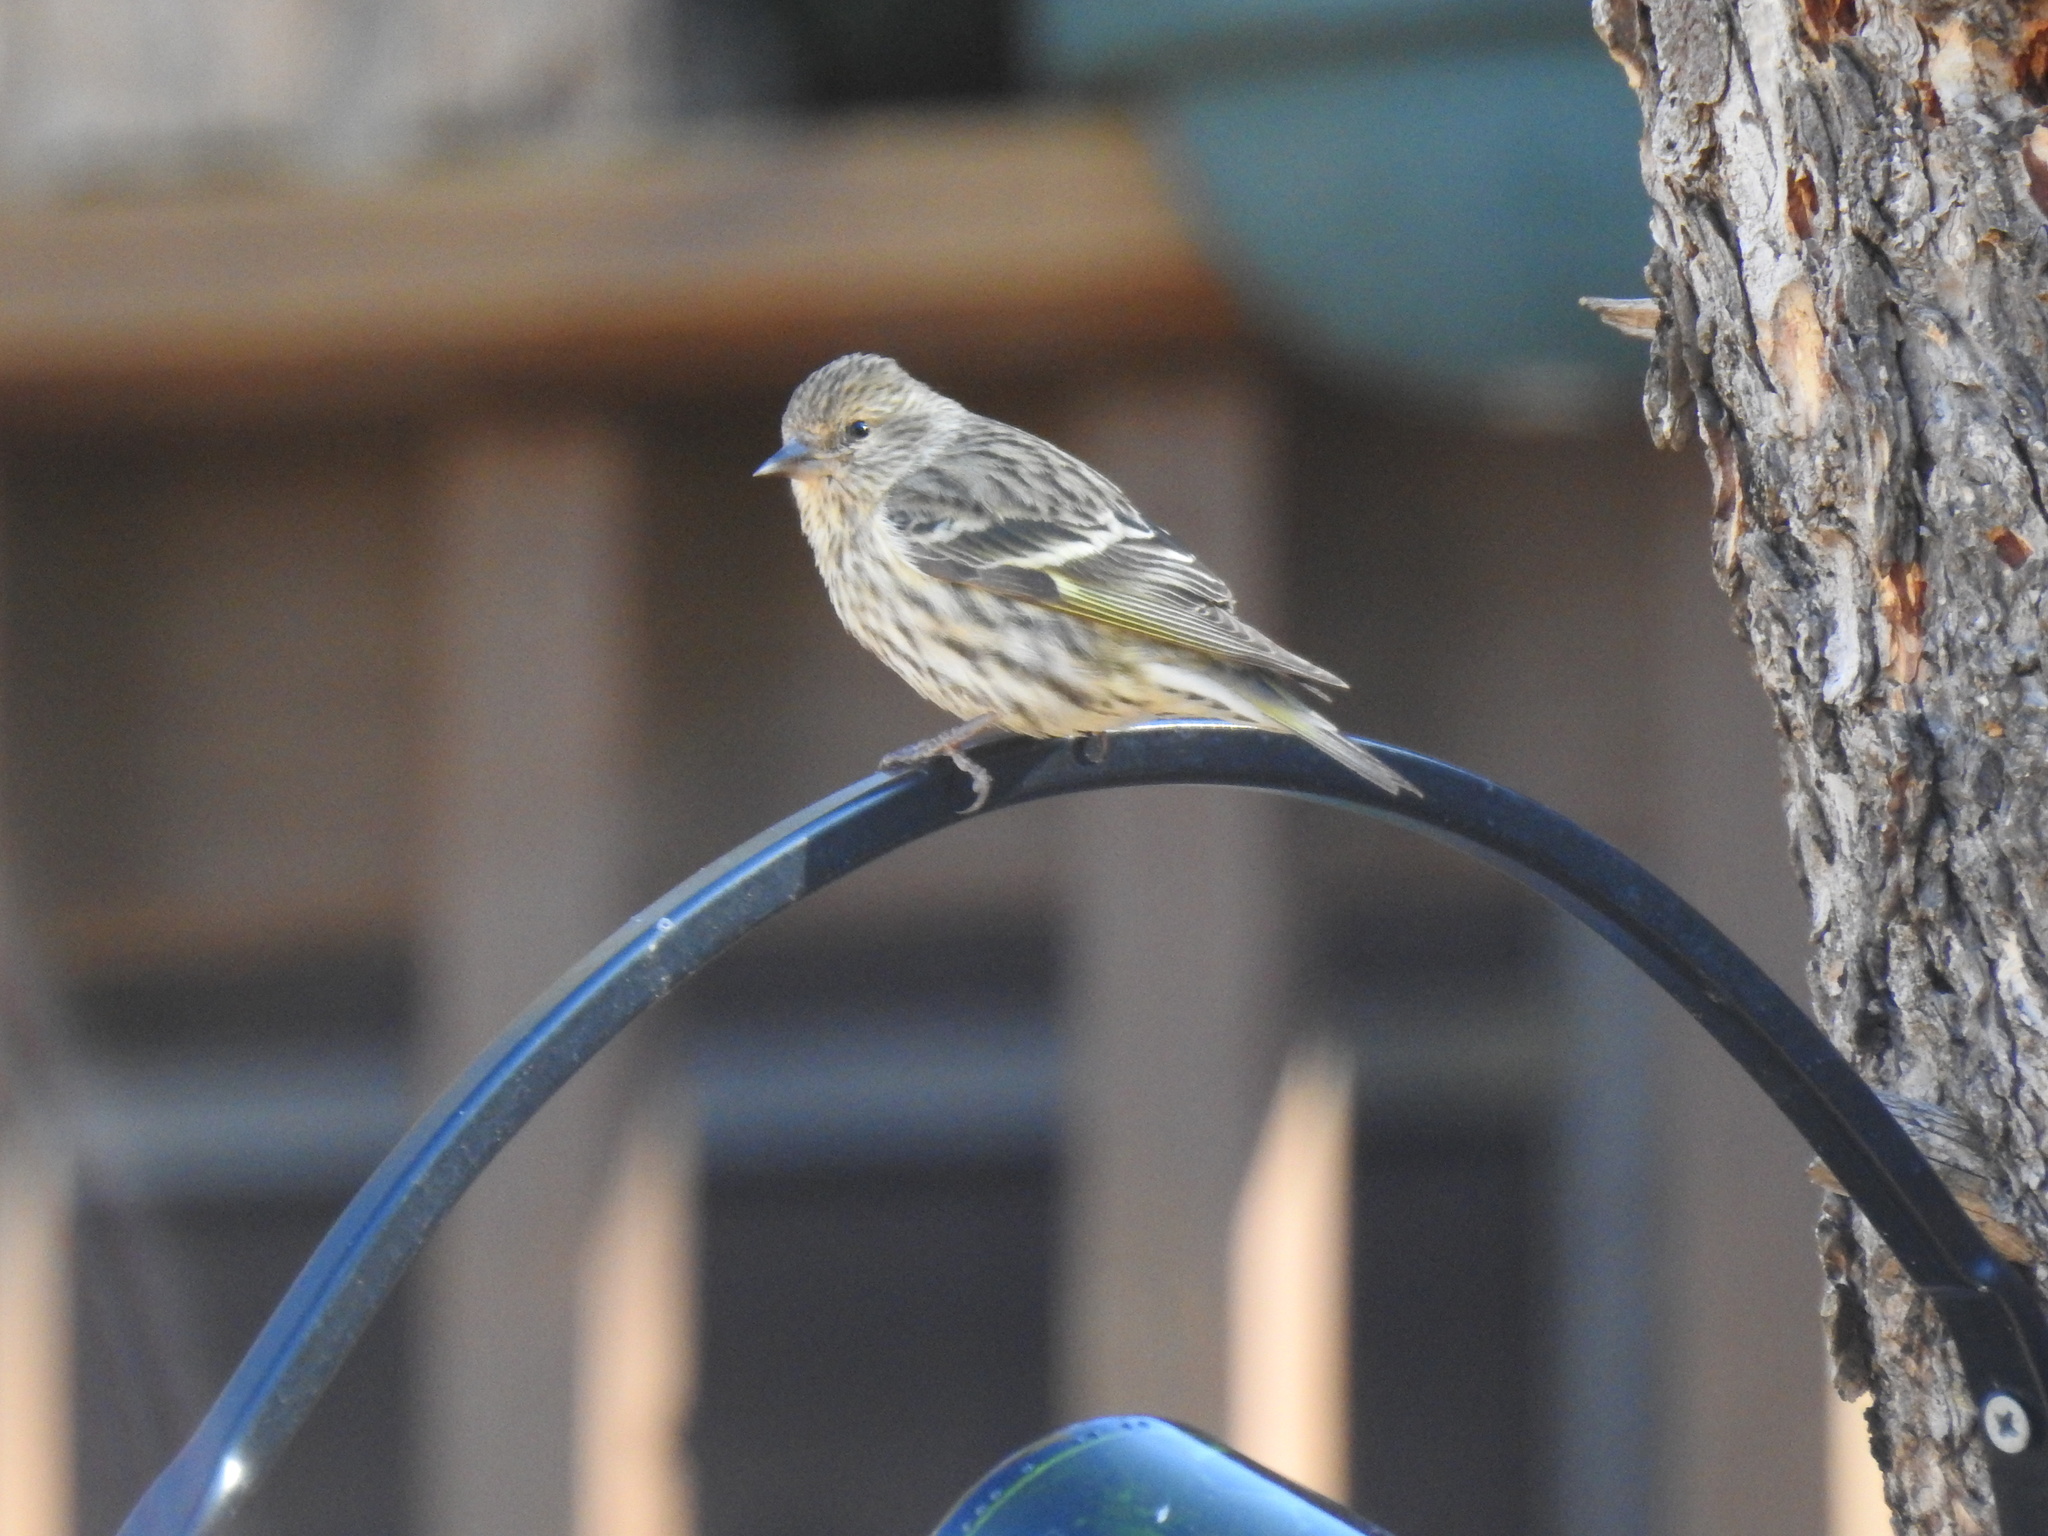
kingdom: Animalia
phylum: Chordata
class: Aves
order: Passeriformes
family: Fringillidae
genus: Spinus
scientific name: Spinus pinus
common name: Pine siskin
